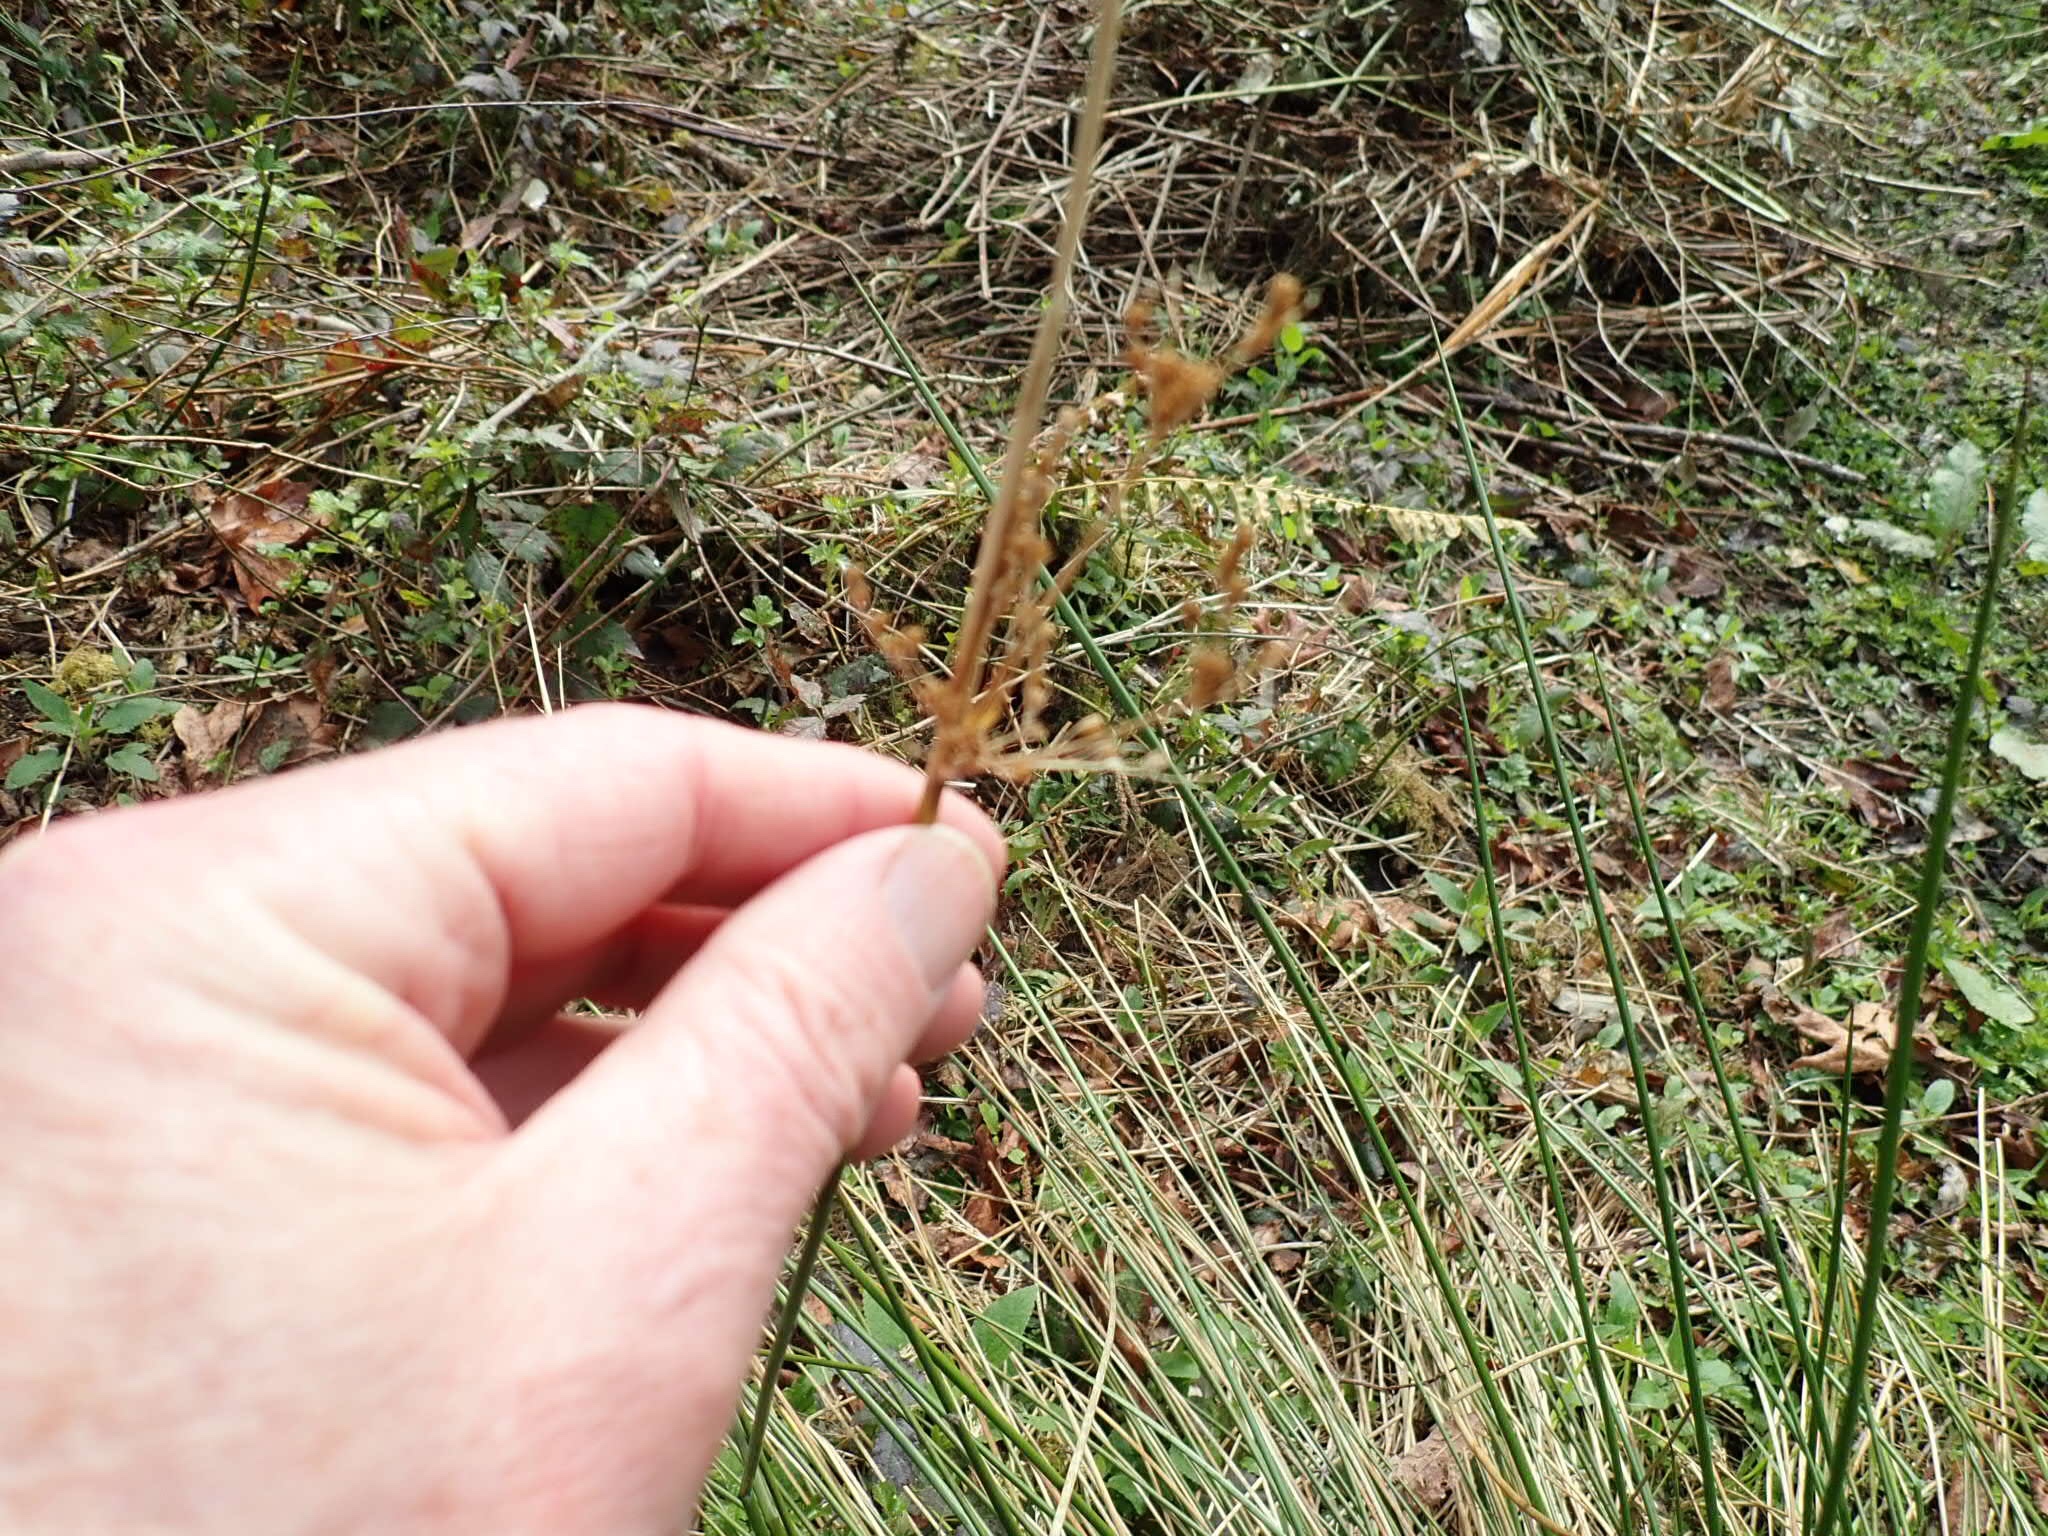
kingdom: Plantae
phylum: Tracheophyta
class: Liliopsida
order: Poales
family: Juncaceae
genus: Juncus
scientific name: Juncus effusus
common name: Soft rush
